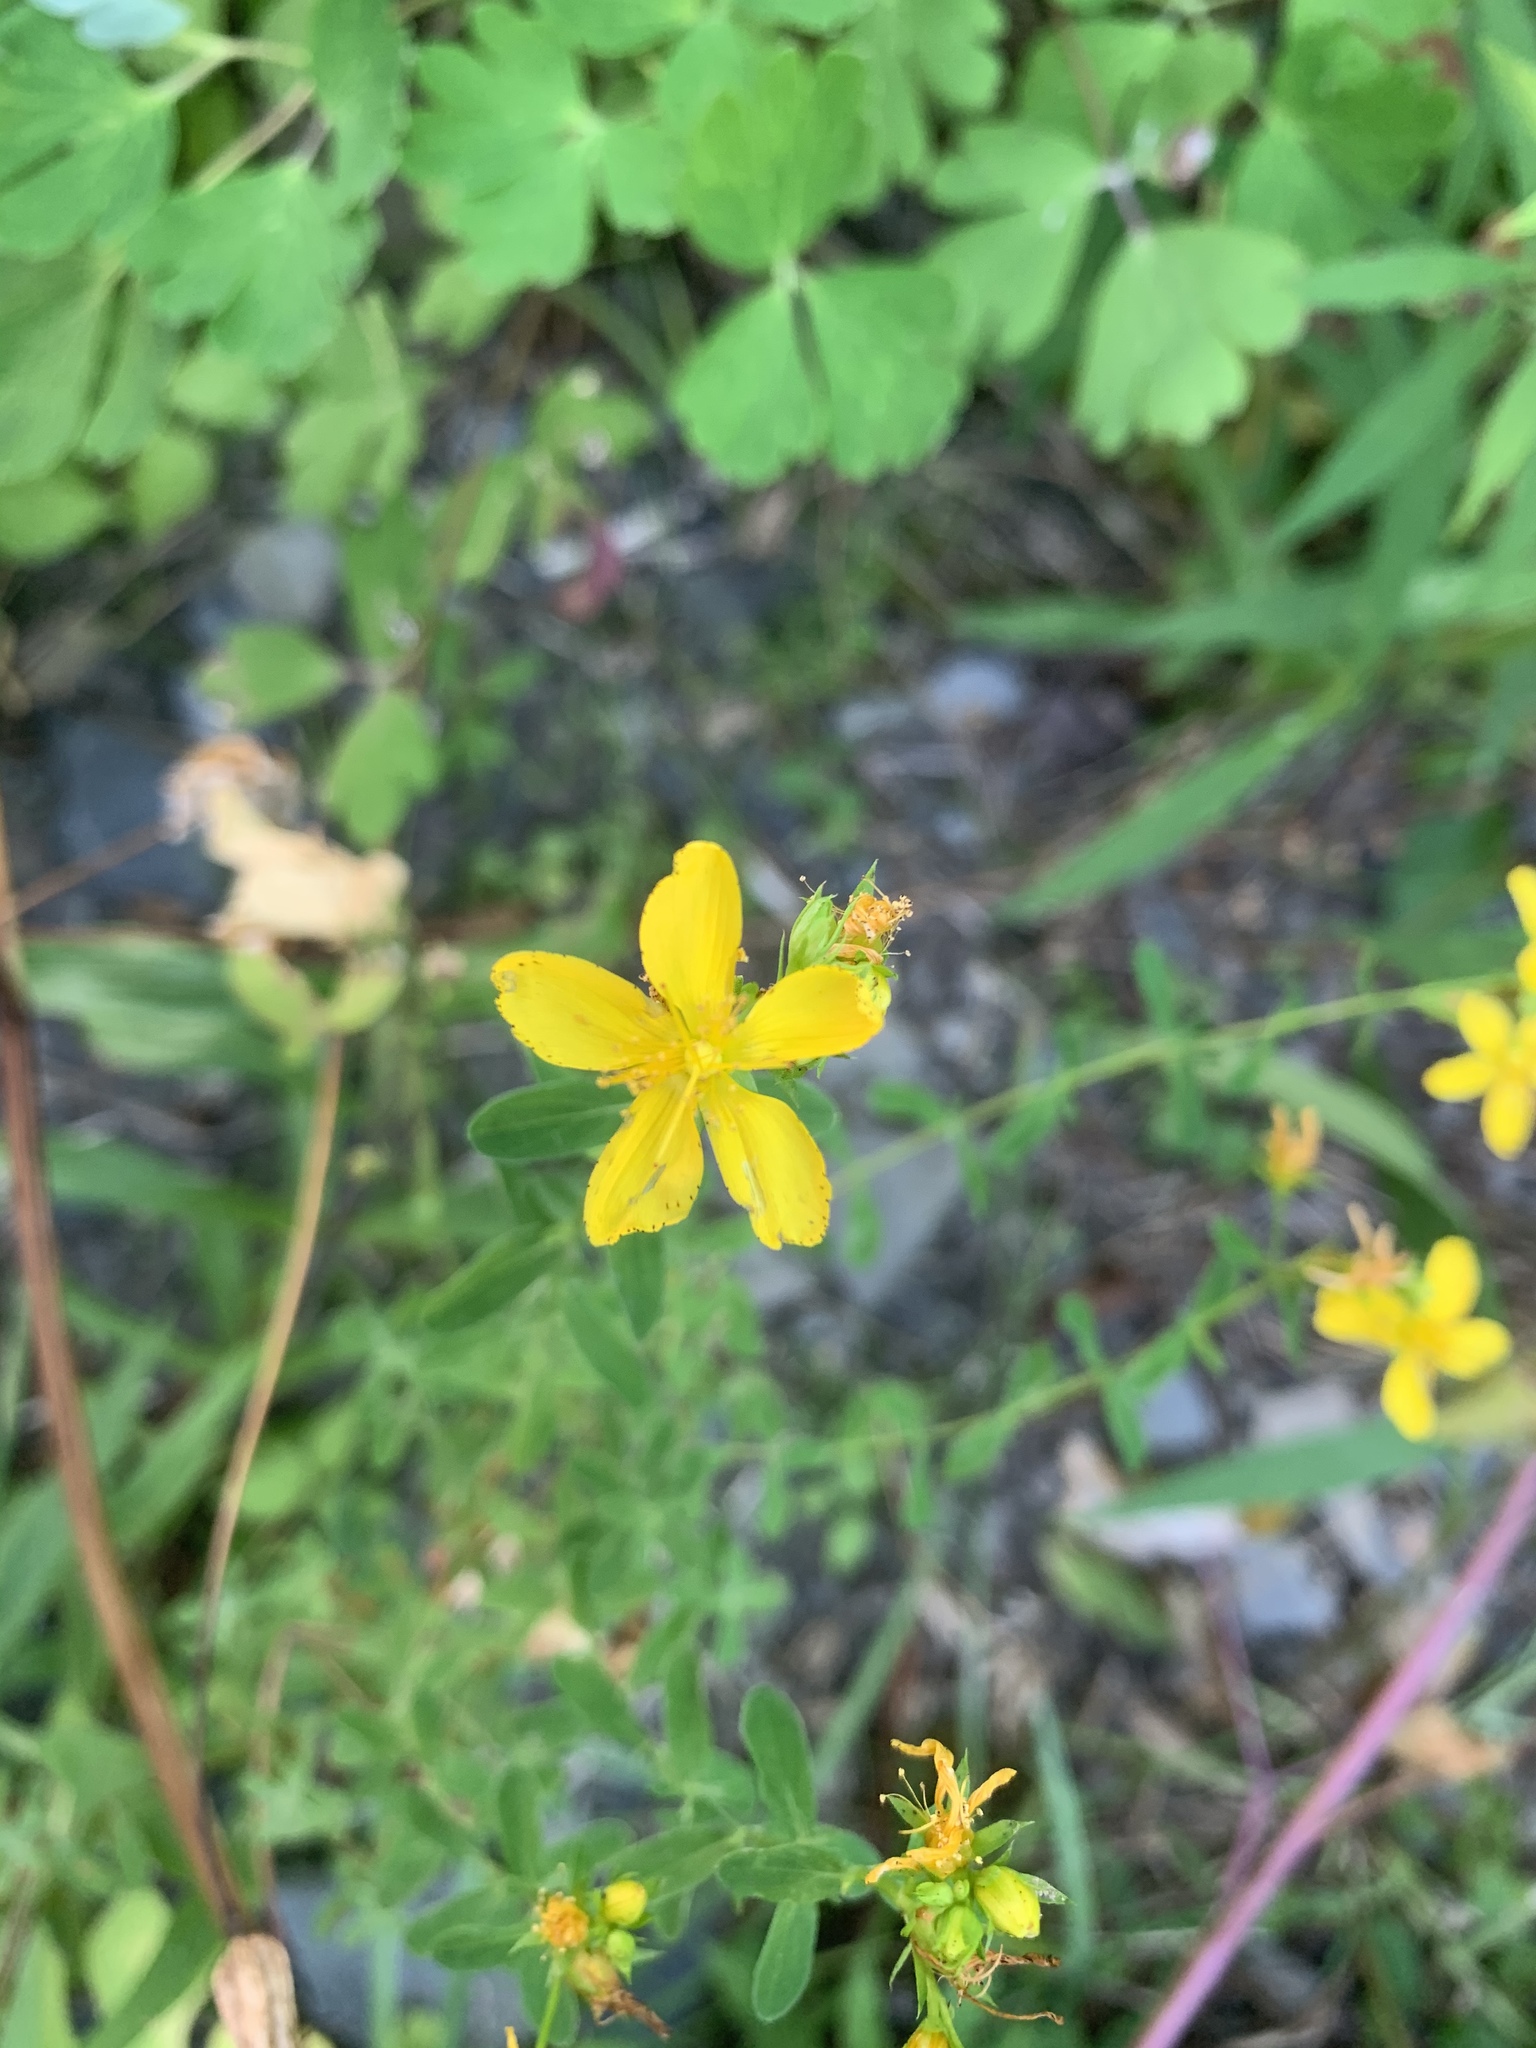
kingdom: Plantae
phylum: Tracheophyta
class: Magnoliopsida
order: Malpighiales
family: Hypericaceae
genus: Hypericum
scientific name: Hypericum perforatum
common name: Common st. johnswort
